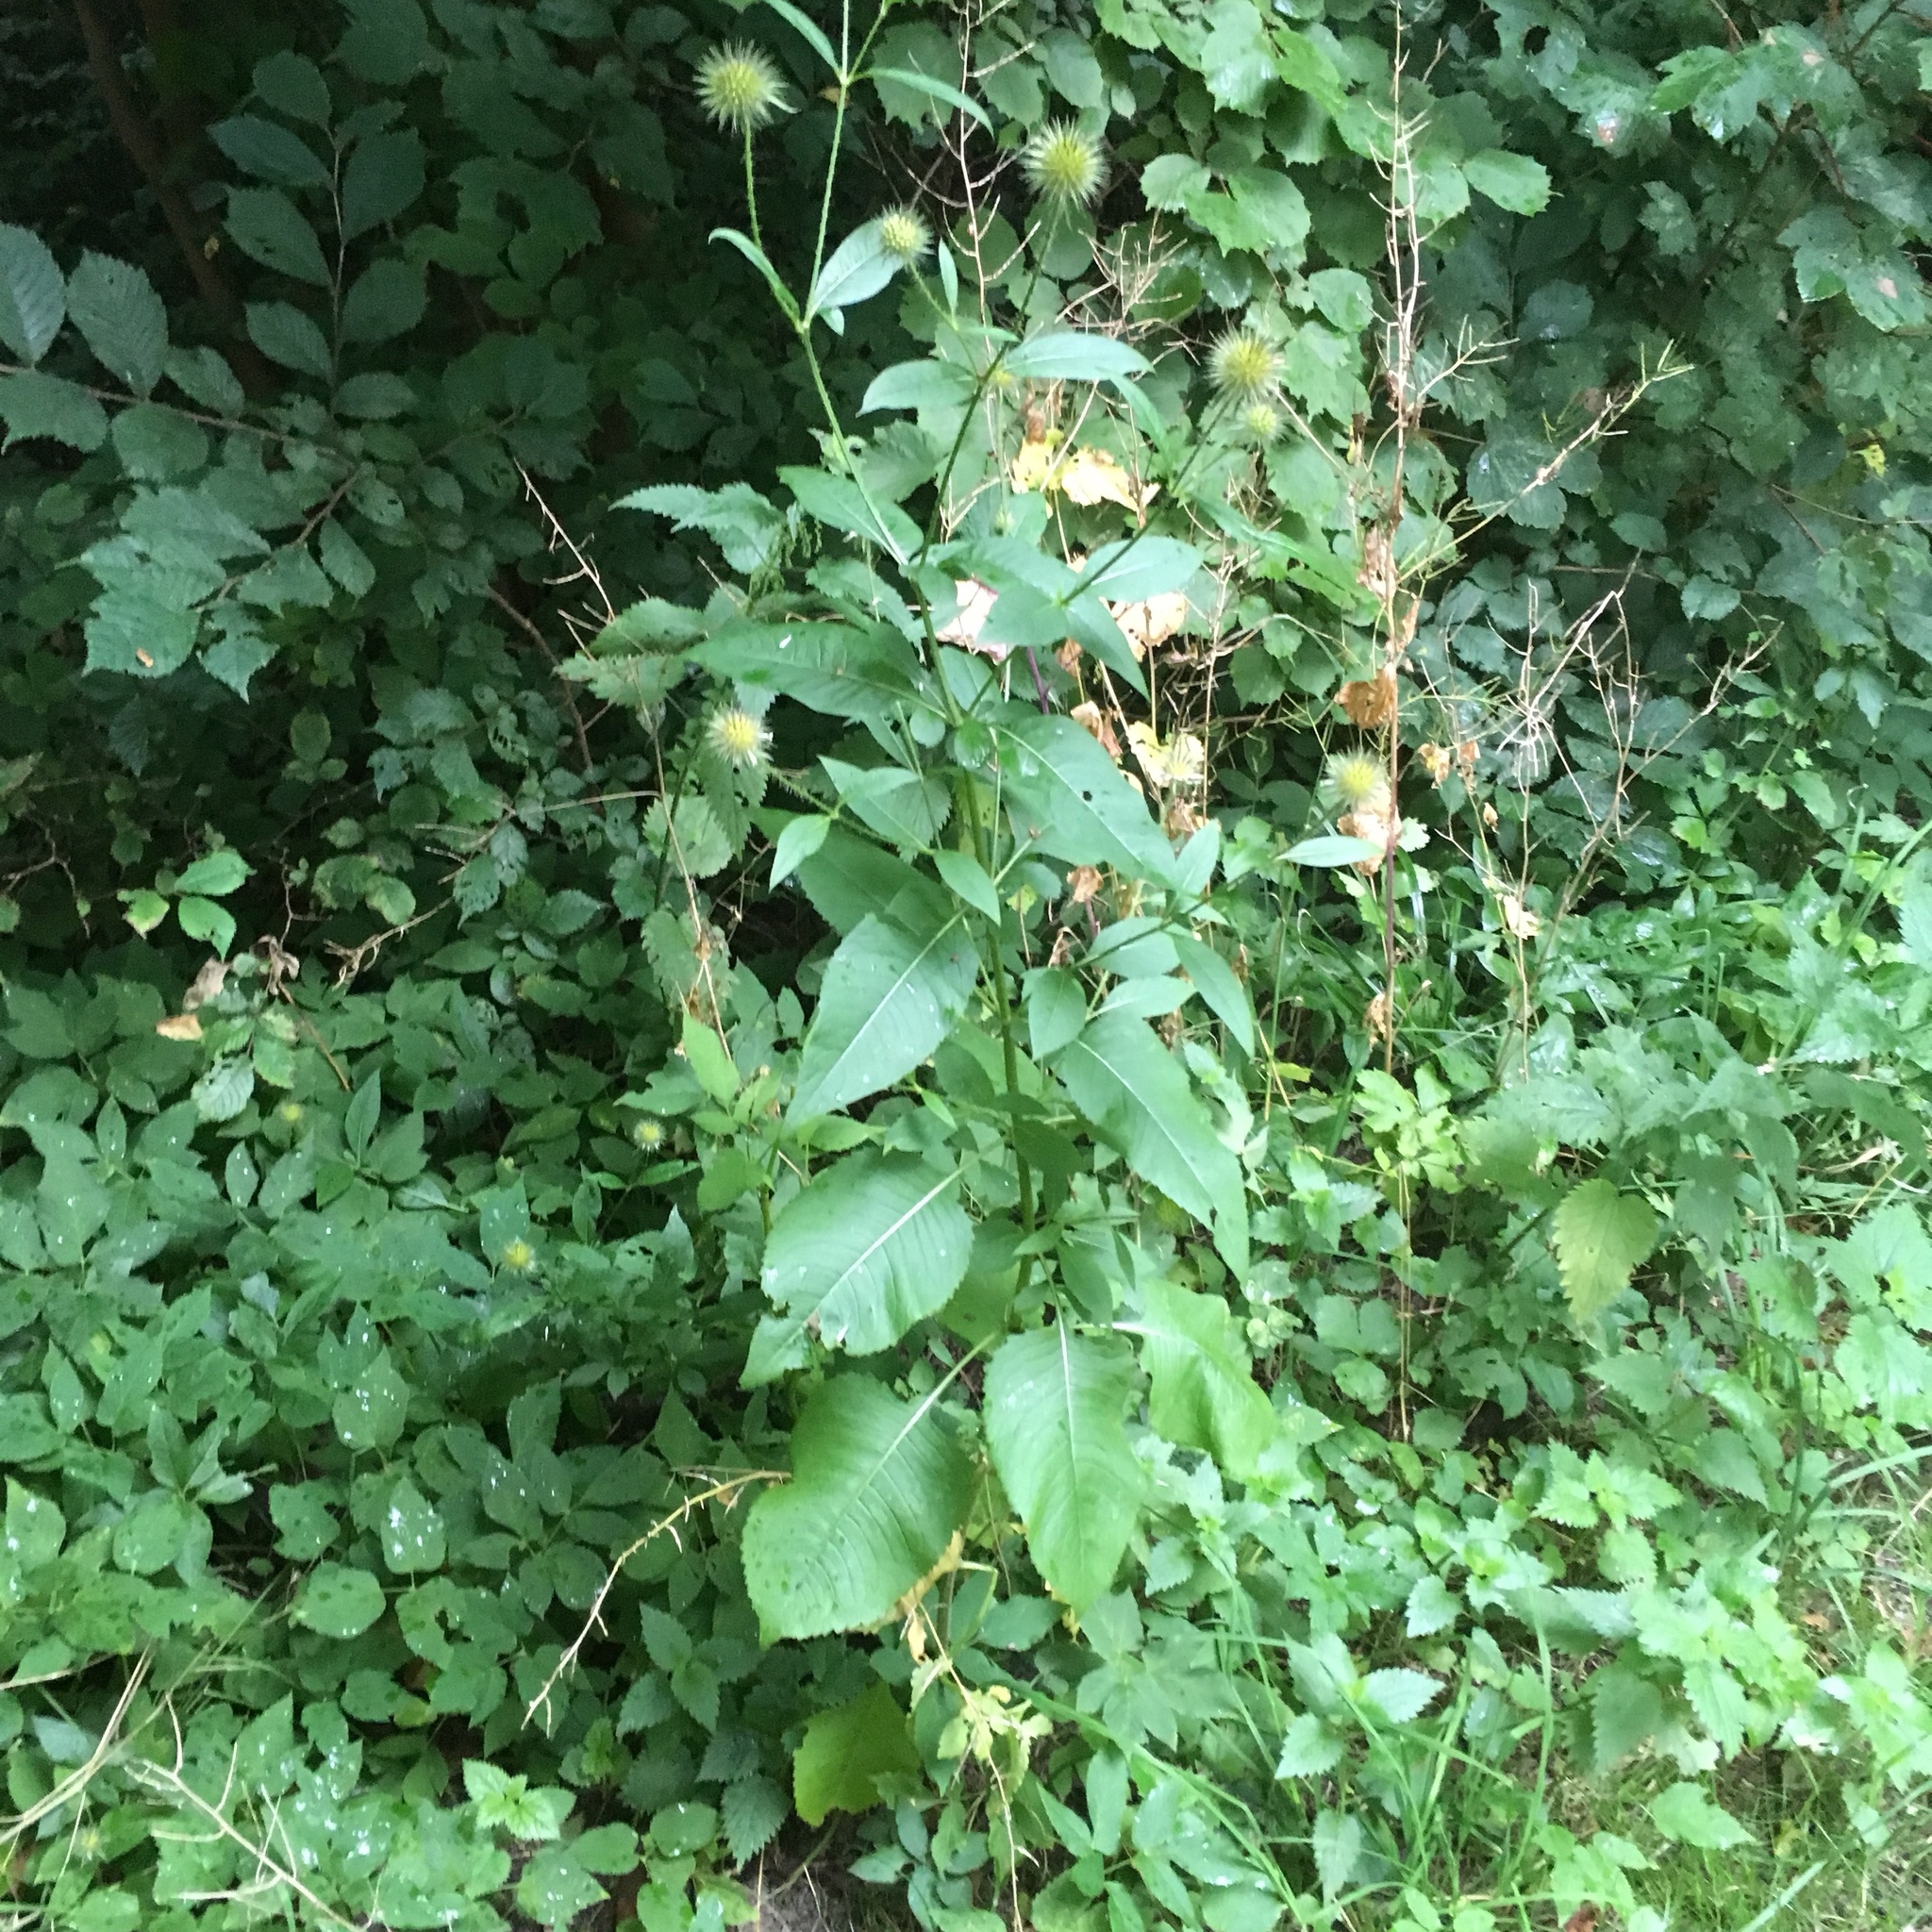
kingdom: Plantae
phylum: Tracheophyta
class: Magnoliopsida
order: Dipsacales
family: Caprifoliaceae
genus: Dipsacus
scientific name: Dipsacus strigosus
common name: Yellow-flowered teasel
